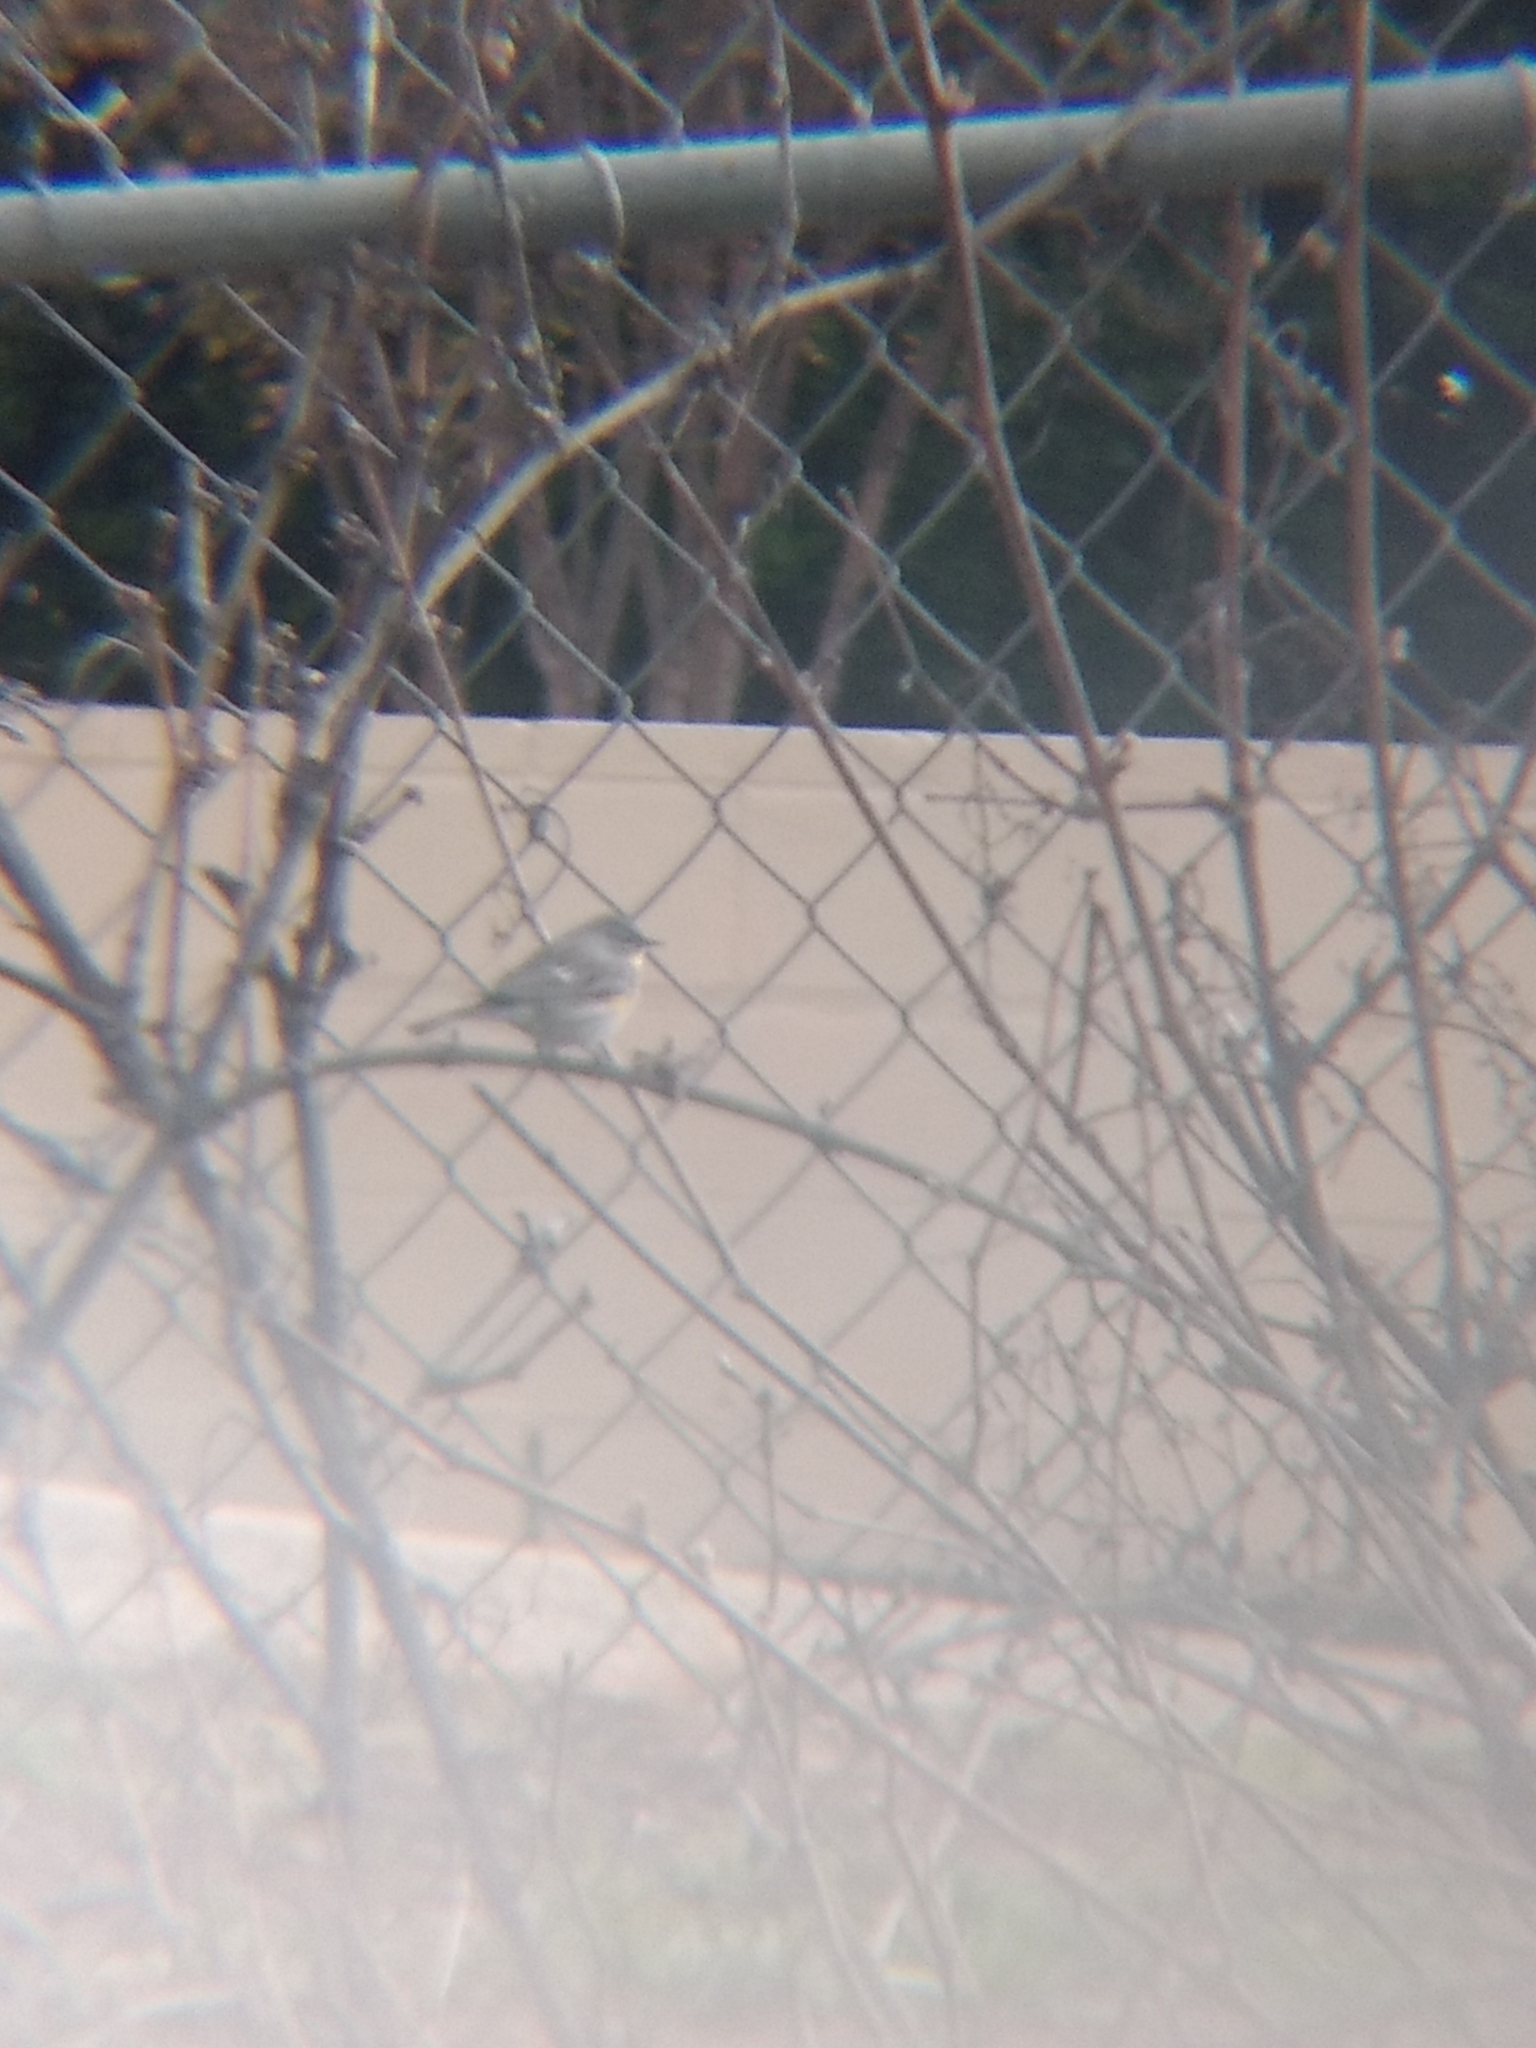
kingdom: Animalia
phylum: Chordata
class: Aves
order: Passeriformes
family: Parulidae
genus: Setophaga
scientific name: Setophaga coronata
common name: Myrtle warbler
